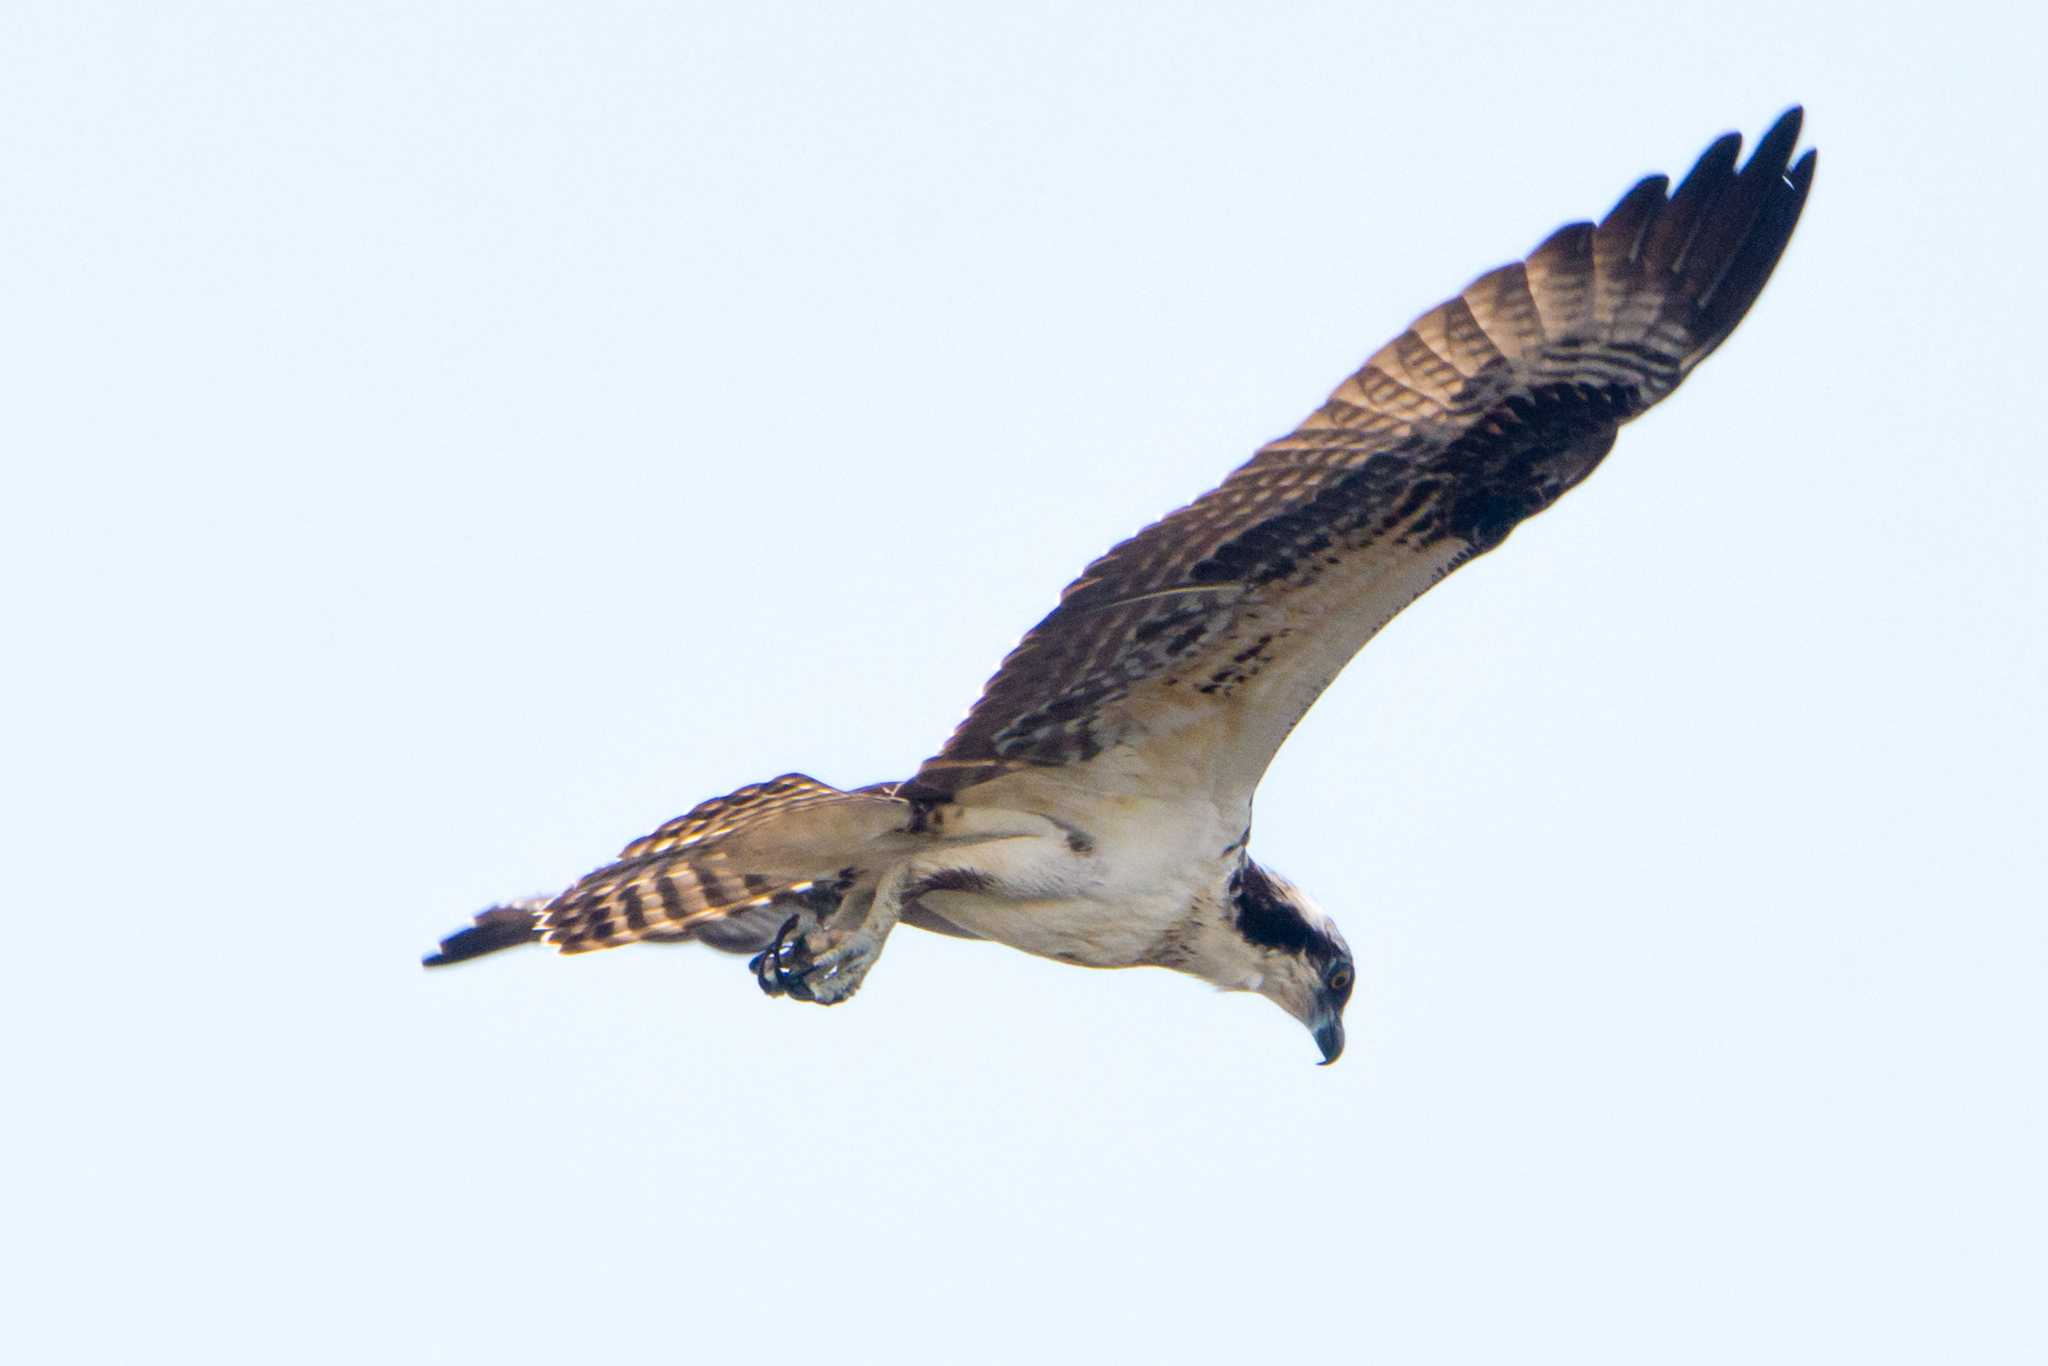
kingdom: Animalia
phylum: Chordata
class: Aves
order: Accipitriformes
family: Pandionidae
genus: Pandion
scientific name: Pandion haliaetus
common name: Osprey
